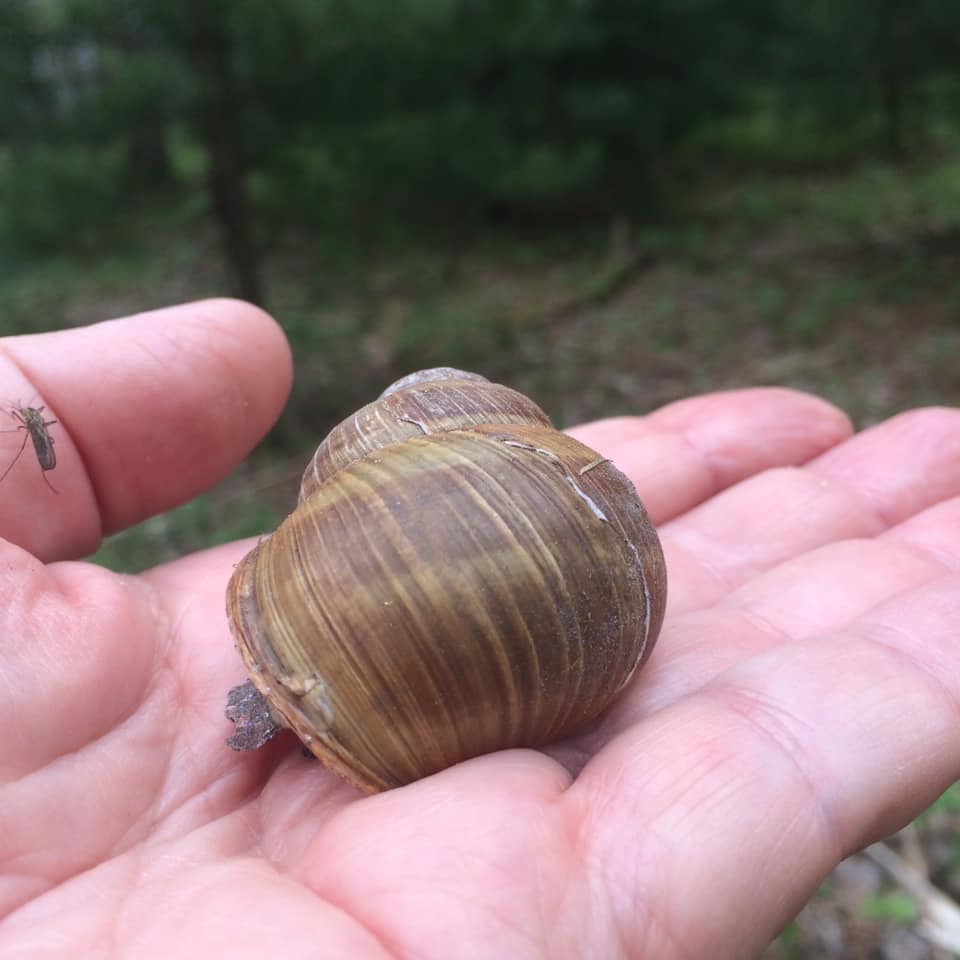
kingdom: Animalia
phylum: Mollusca
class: Gastropoda
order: Stylommatophora
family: Helicidae
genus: Helix
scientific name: Helix pomatia
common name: Roman snail
